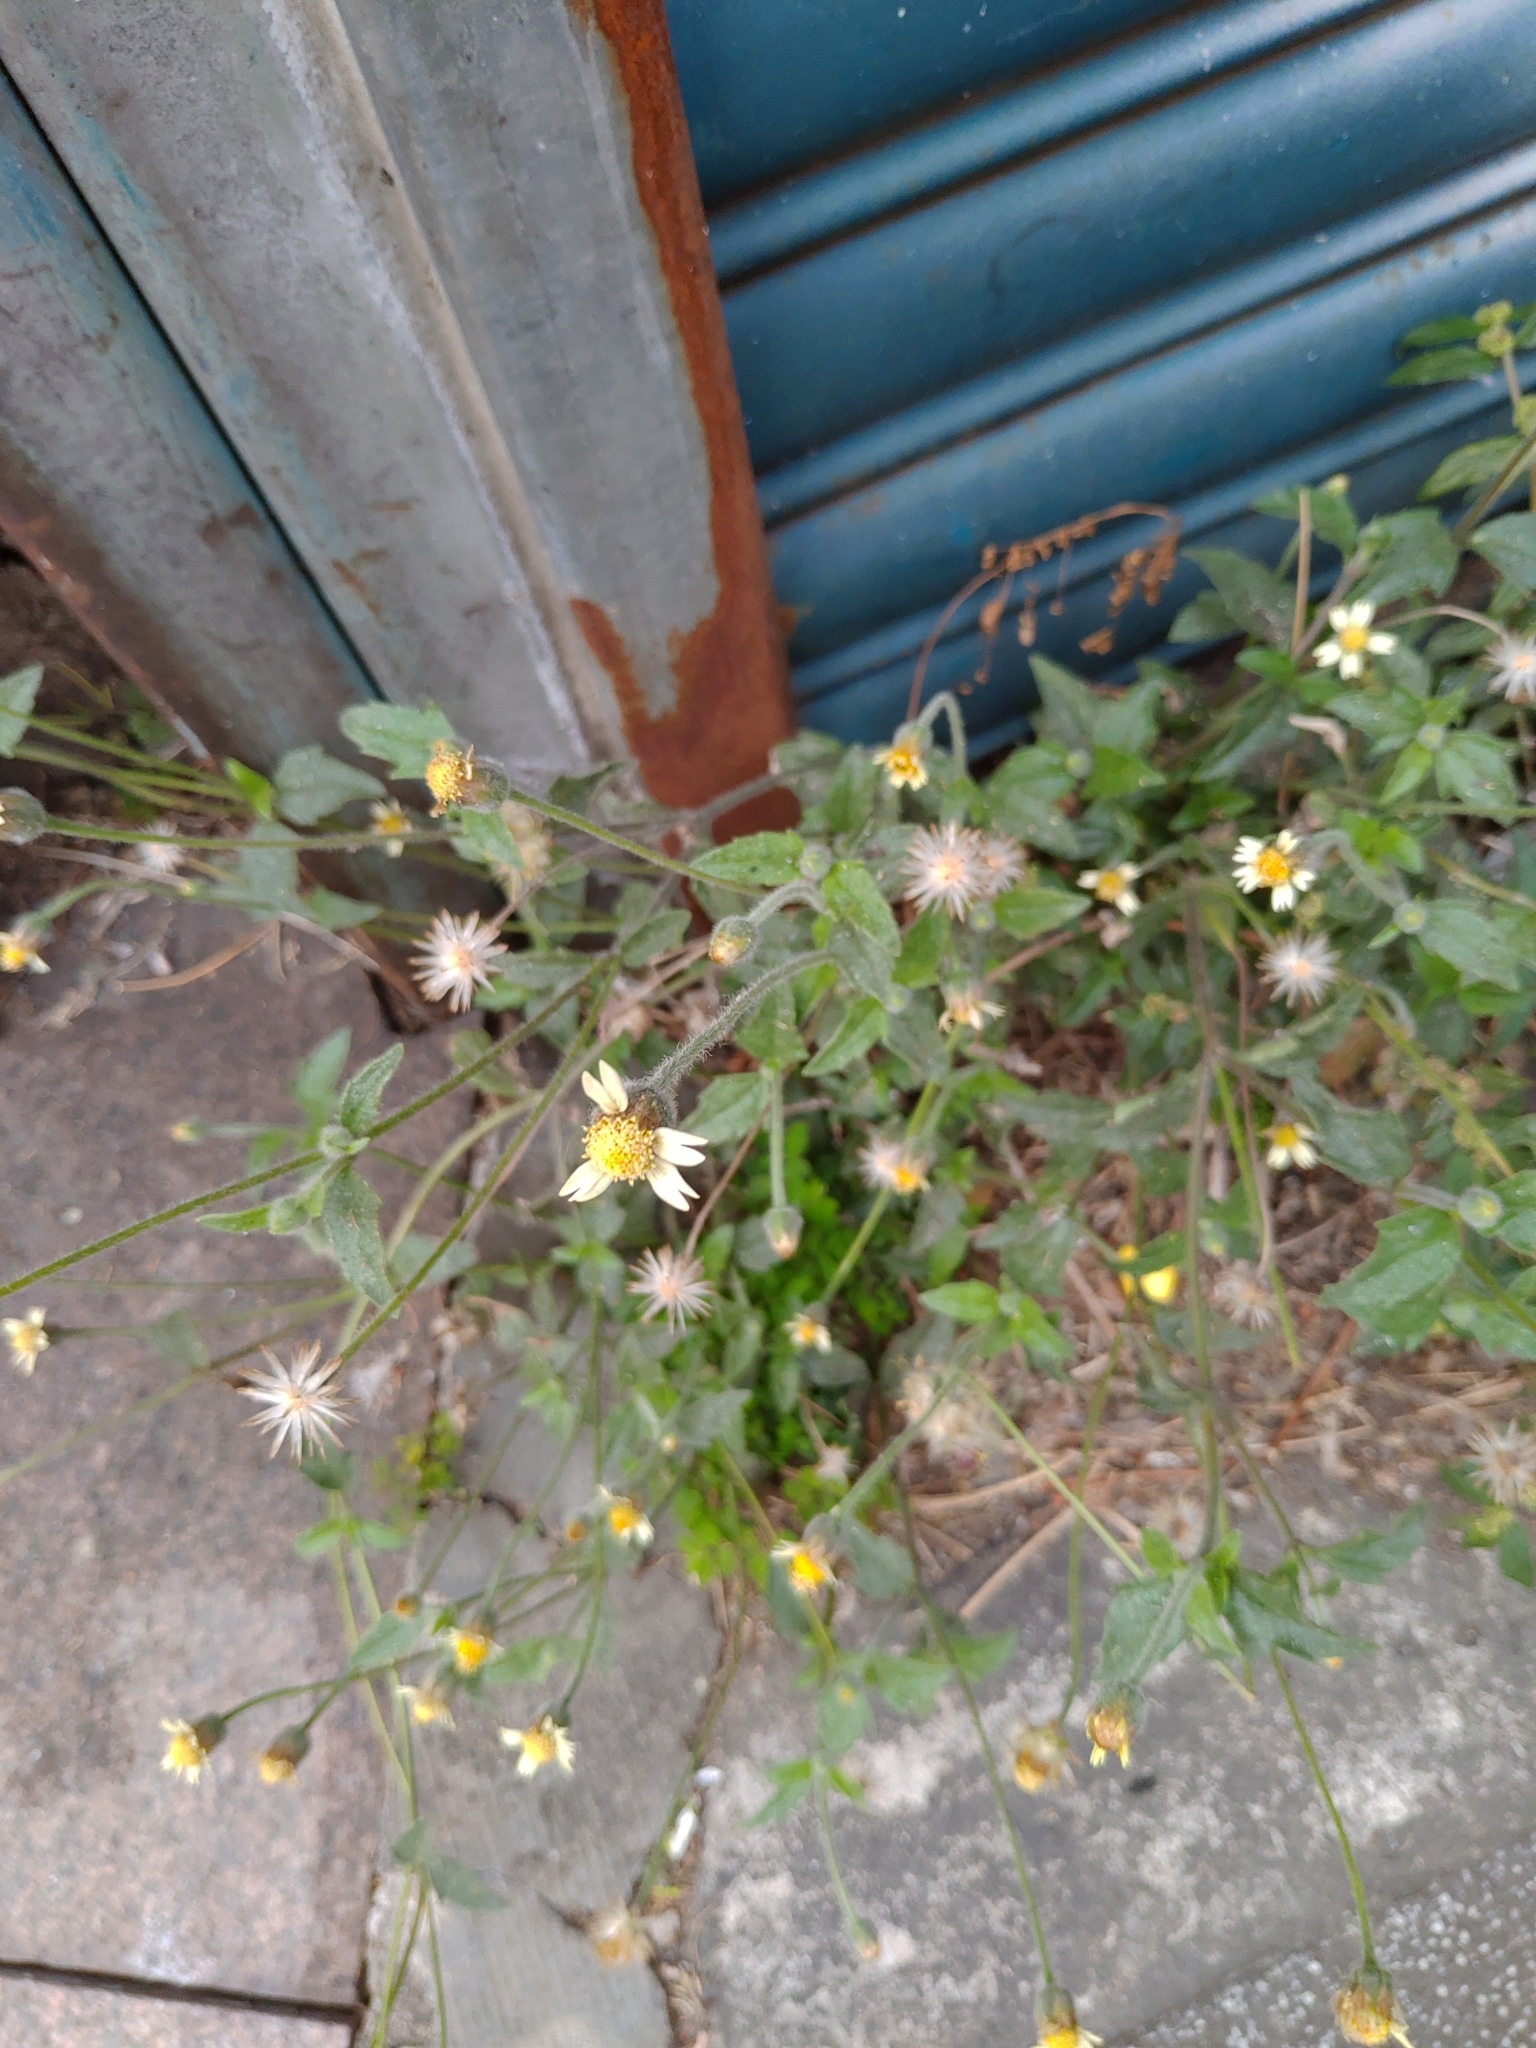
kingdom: Plantae
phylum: Tracheophyta
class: Magnoliopsida
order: Asterales
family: Asteraceae
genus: Tridax
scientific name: Tridax procumbens
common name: Coatbuttons
